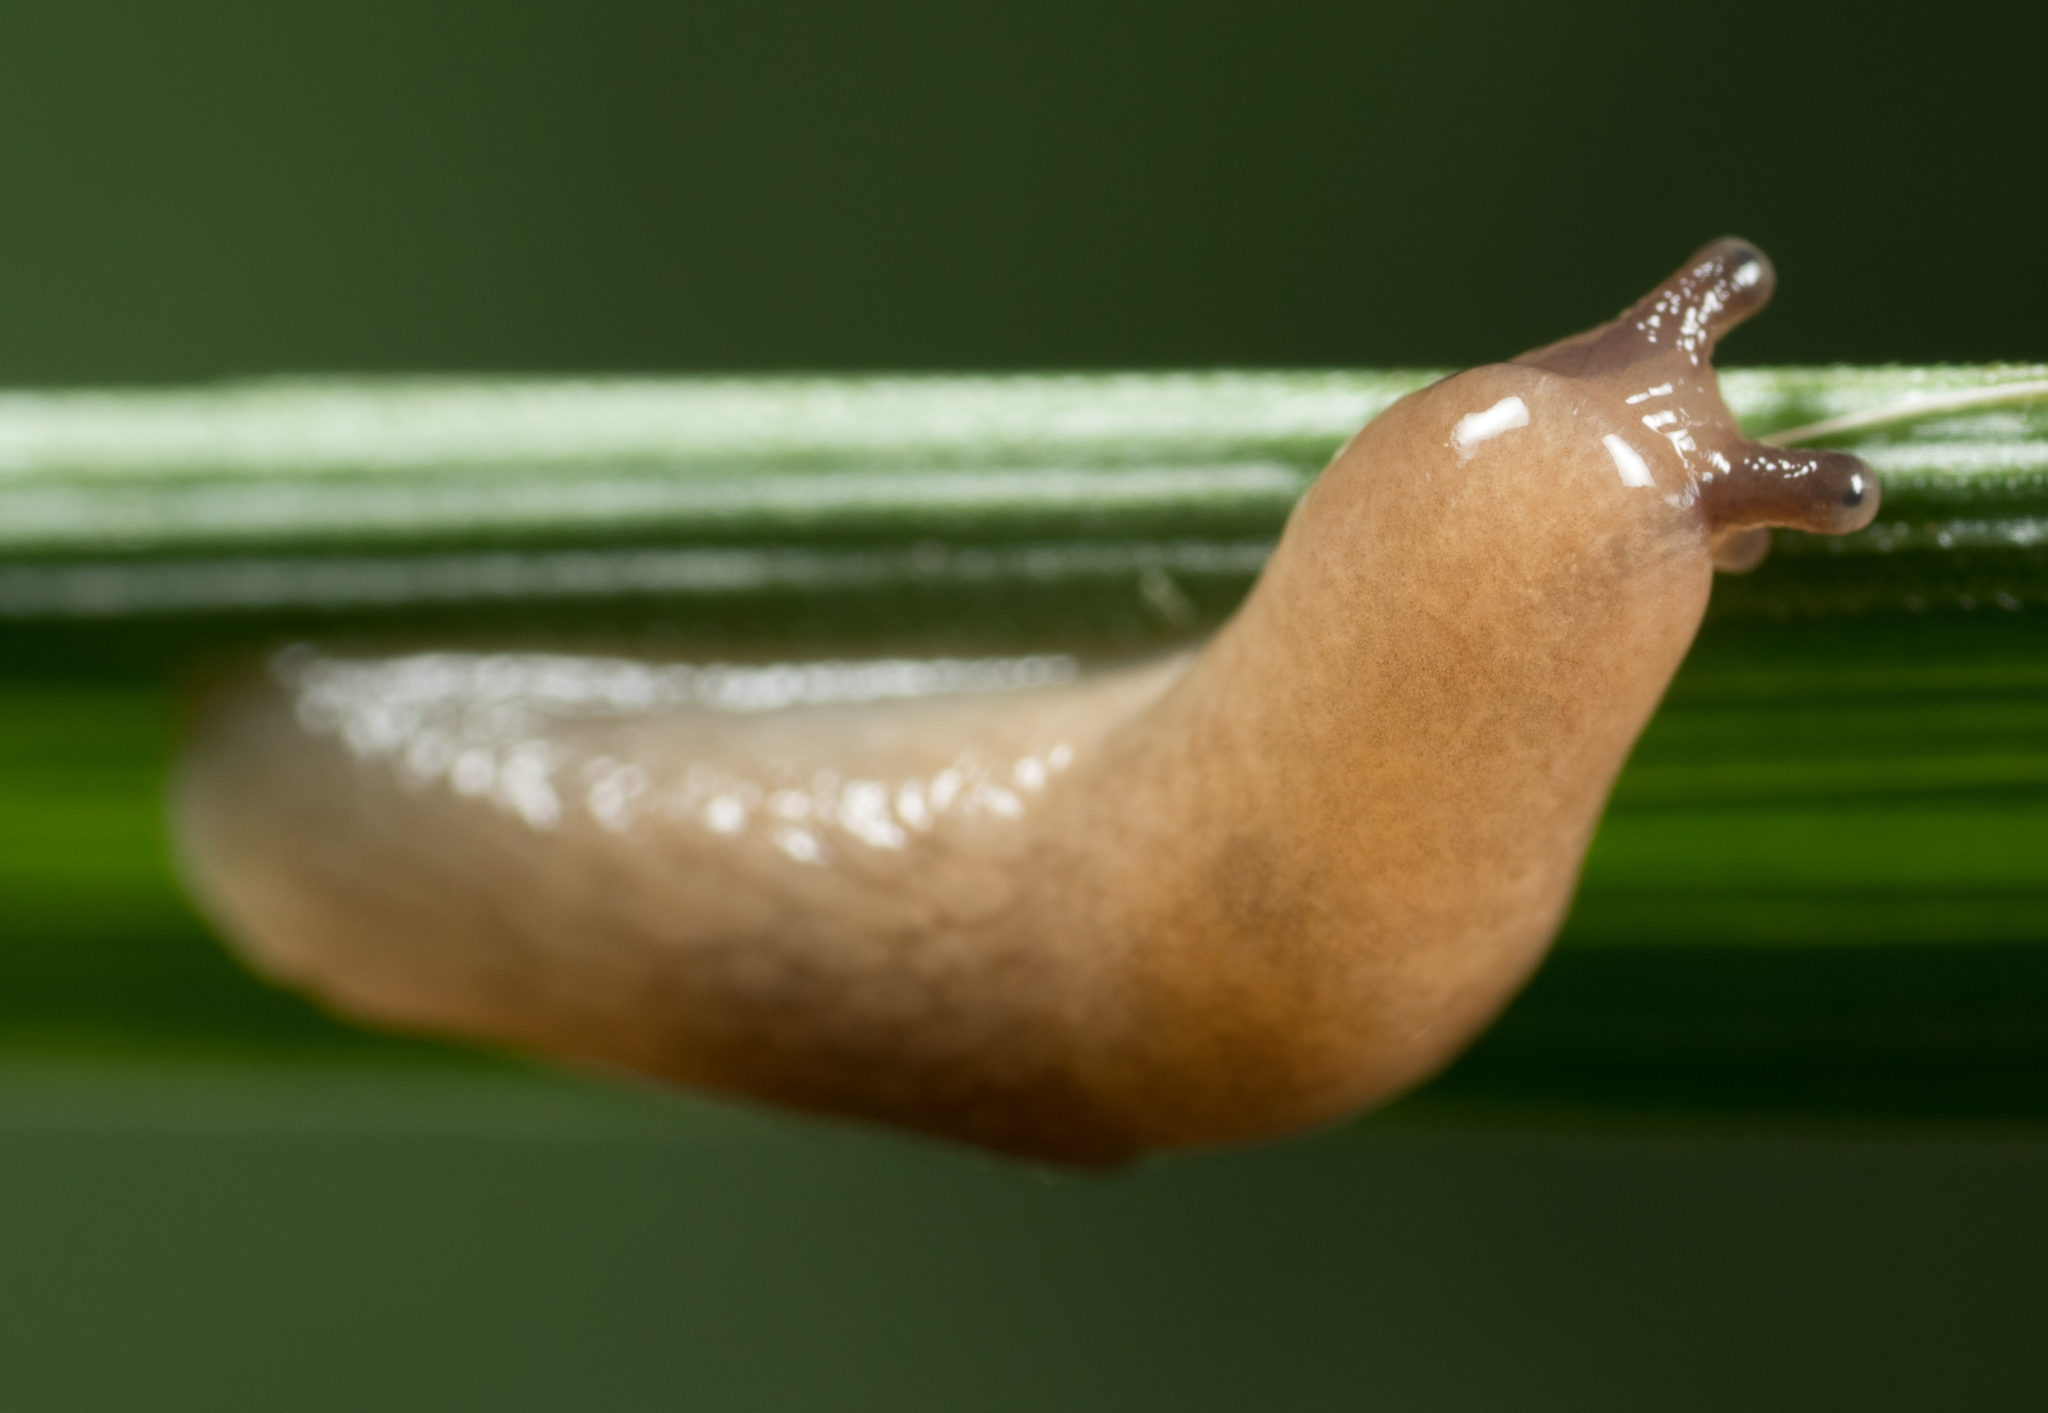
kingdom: Animalia
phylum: Mollusca
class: Gastropoda
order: Stylommatophora
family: Agriolimacidae
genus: Deroceras
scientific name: Deroceras reticulatum
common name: Gray field slug
